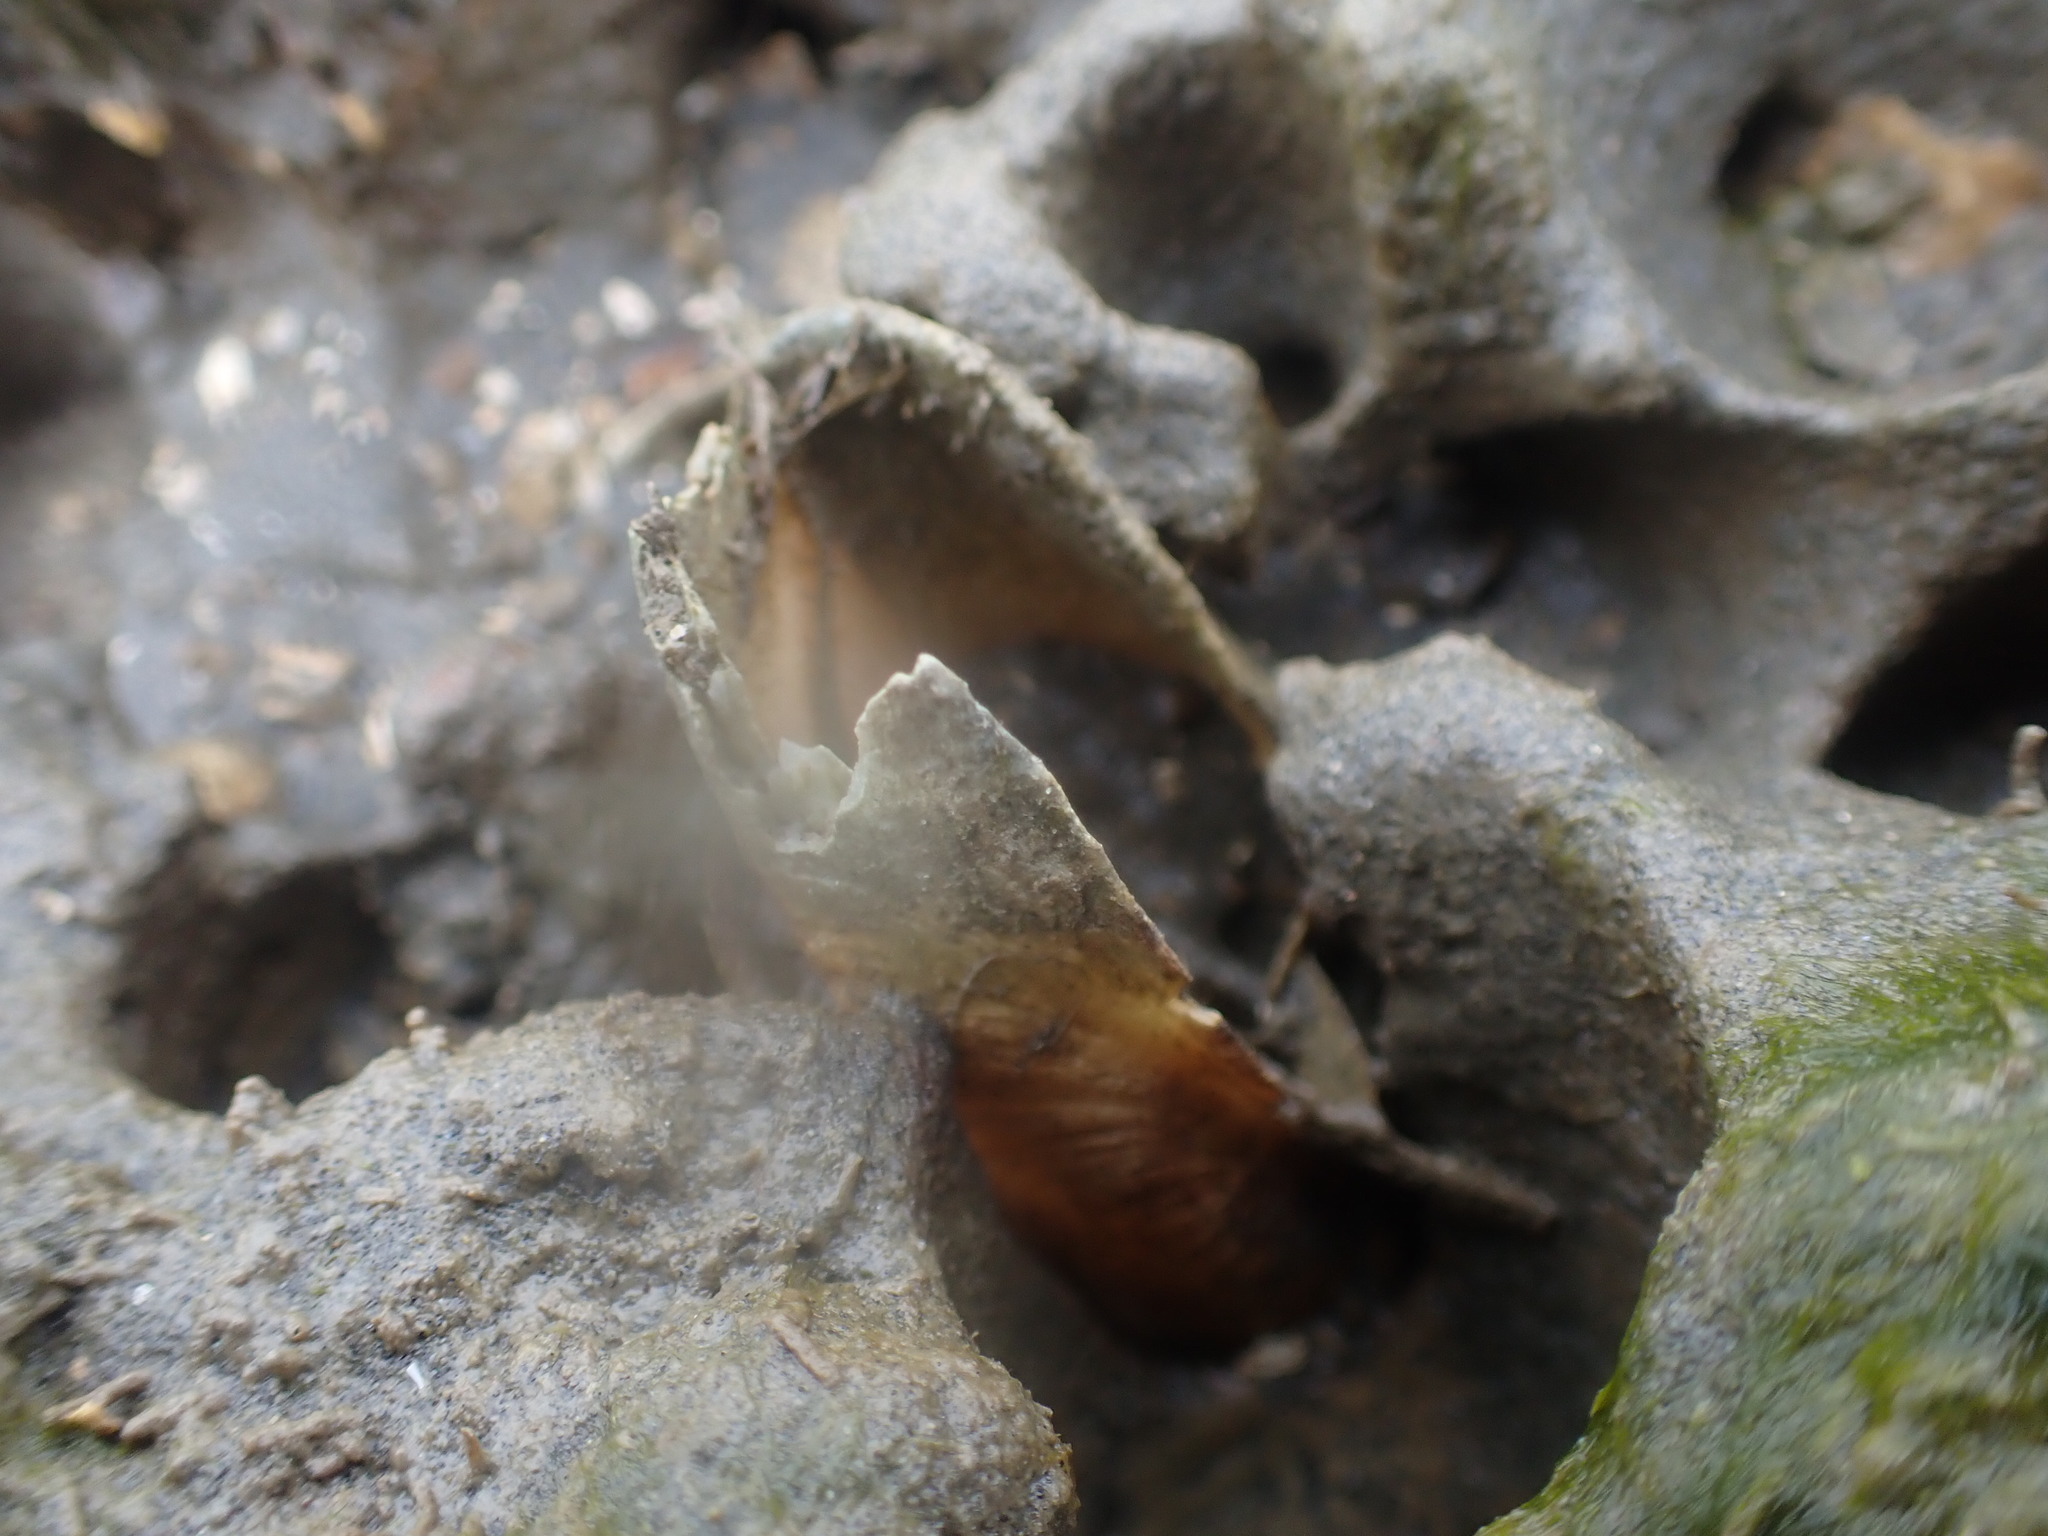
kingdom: Animalia
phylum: Mollusca
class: Bivalvia
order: Myida
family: Pholadidae
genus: Barnea
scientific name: Barnea similis
